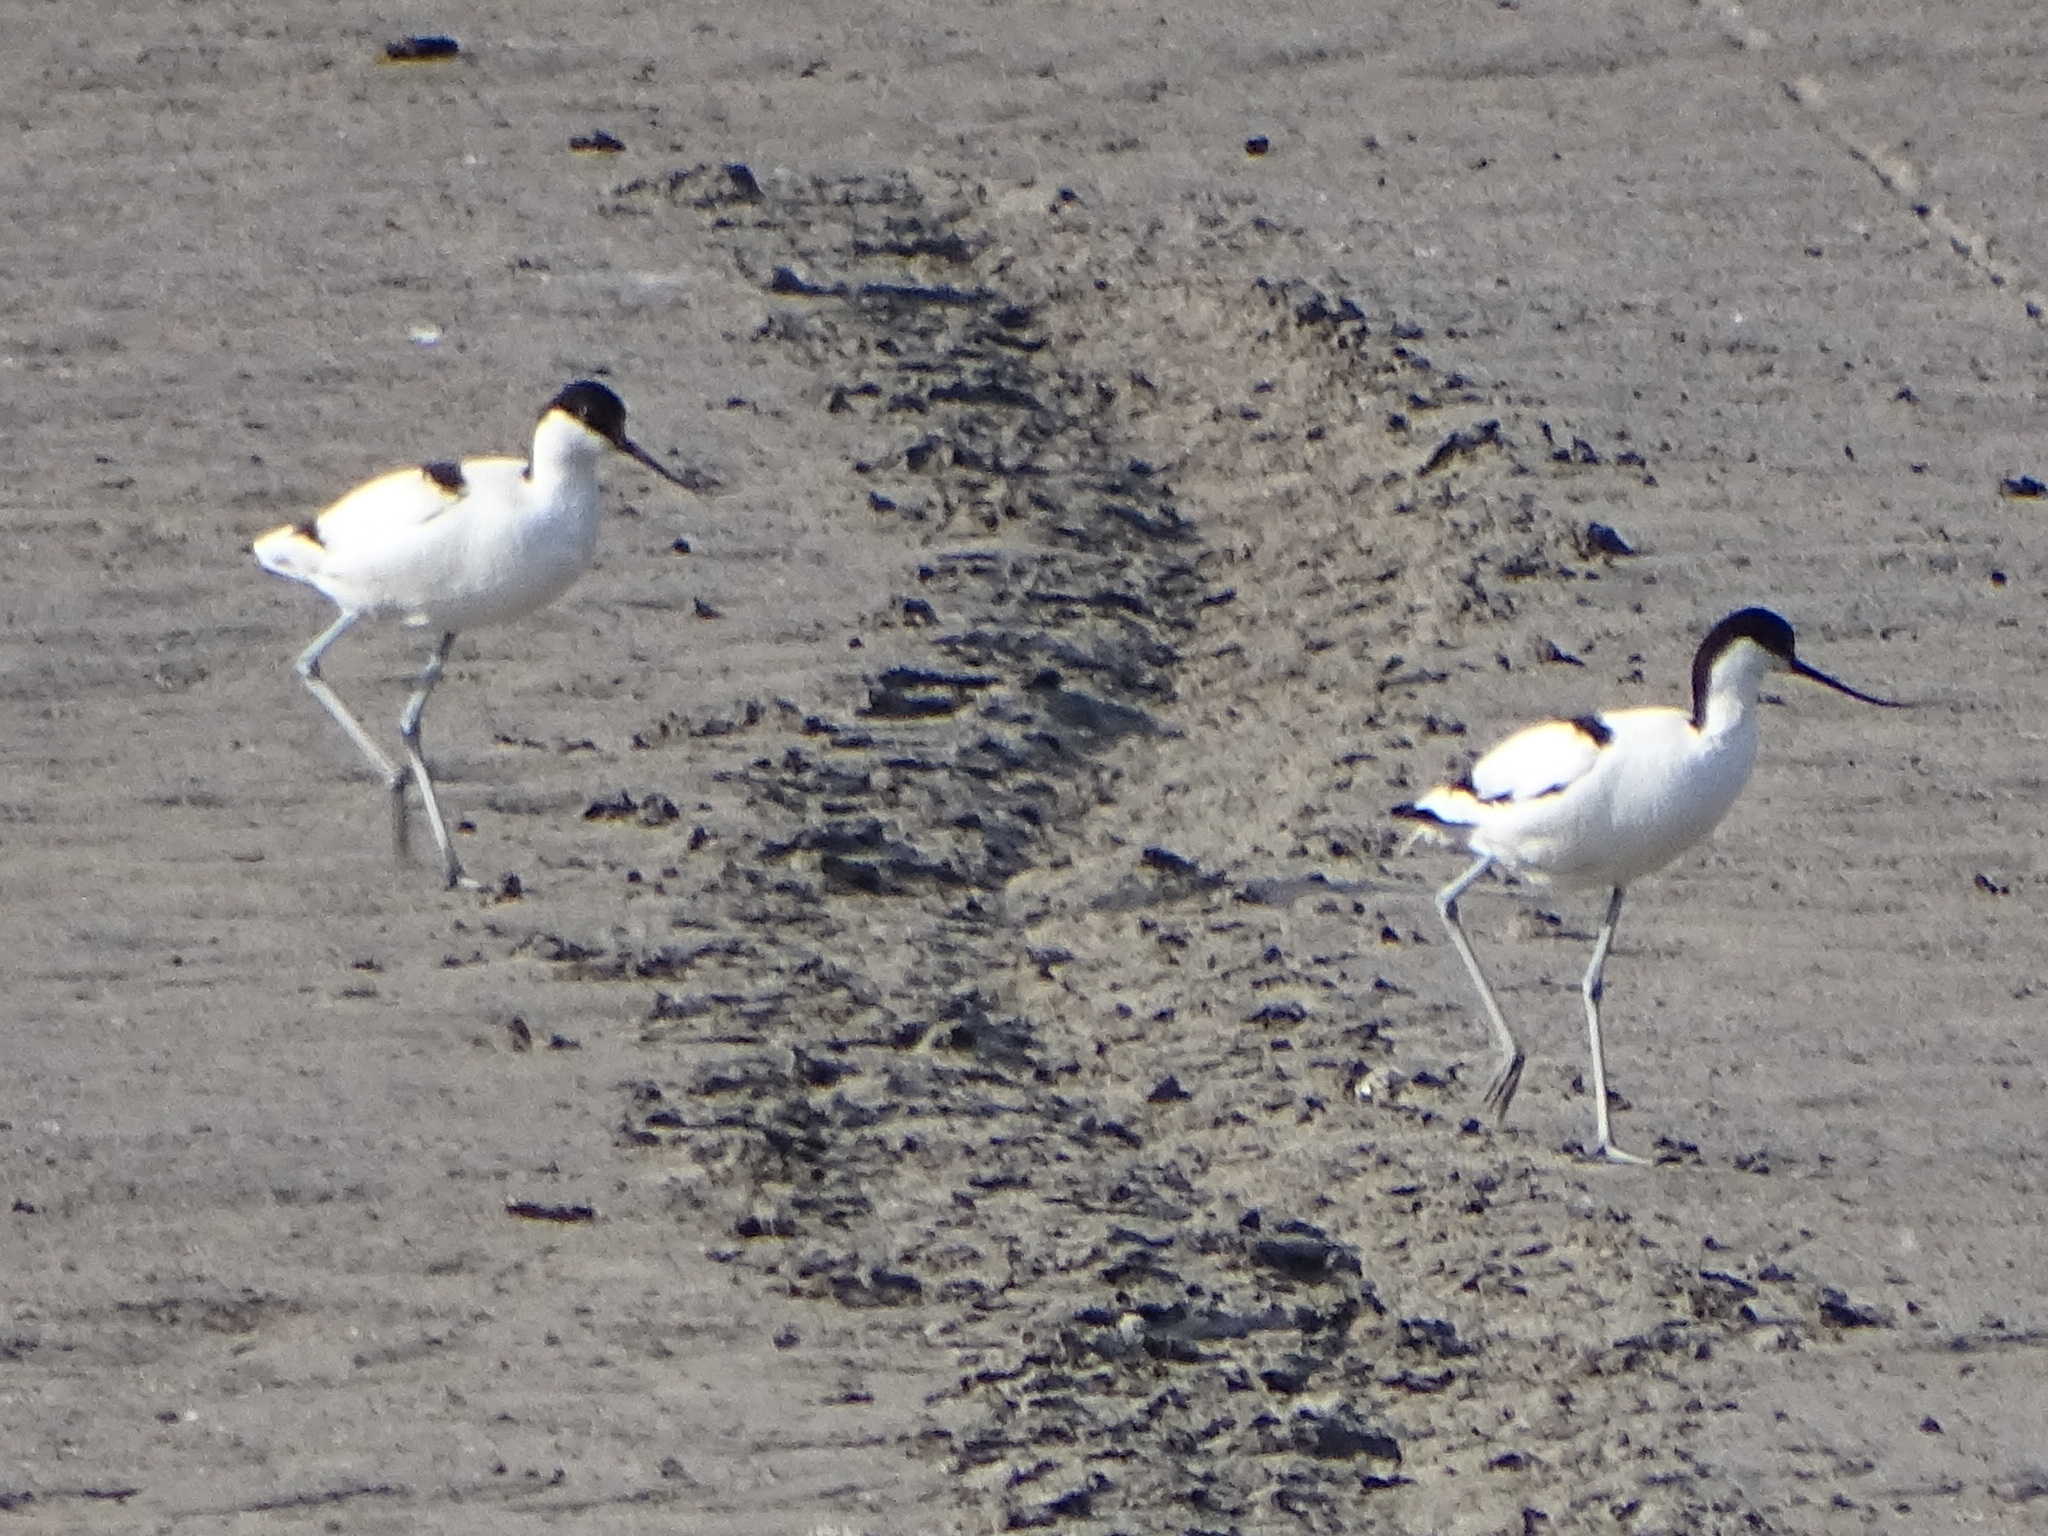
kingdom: Animalia
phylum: Chordata
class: Aves
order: Charadriiformes
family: Recurvirostridae
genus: Recurvirostra
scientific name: Recurvirostra avosetta
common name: Pied avocet
